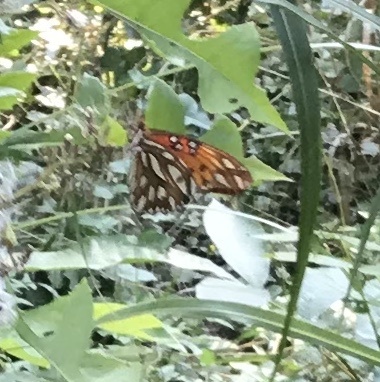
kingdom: Animalia
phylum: Arthropoda
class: Insecta
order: Lepidoptera
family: Nymphalidae
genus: Dione
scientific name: Dione vanillae
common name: Gulf fritillary
